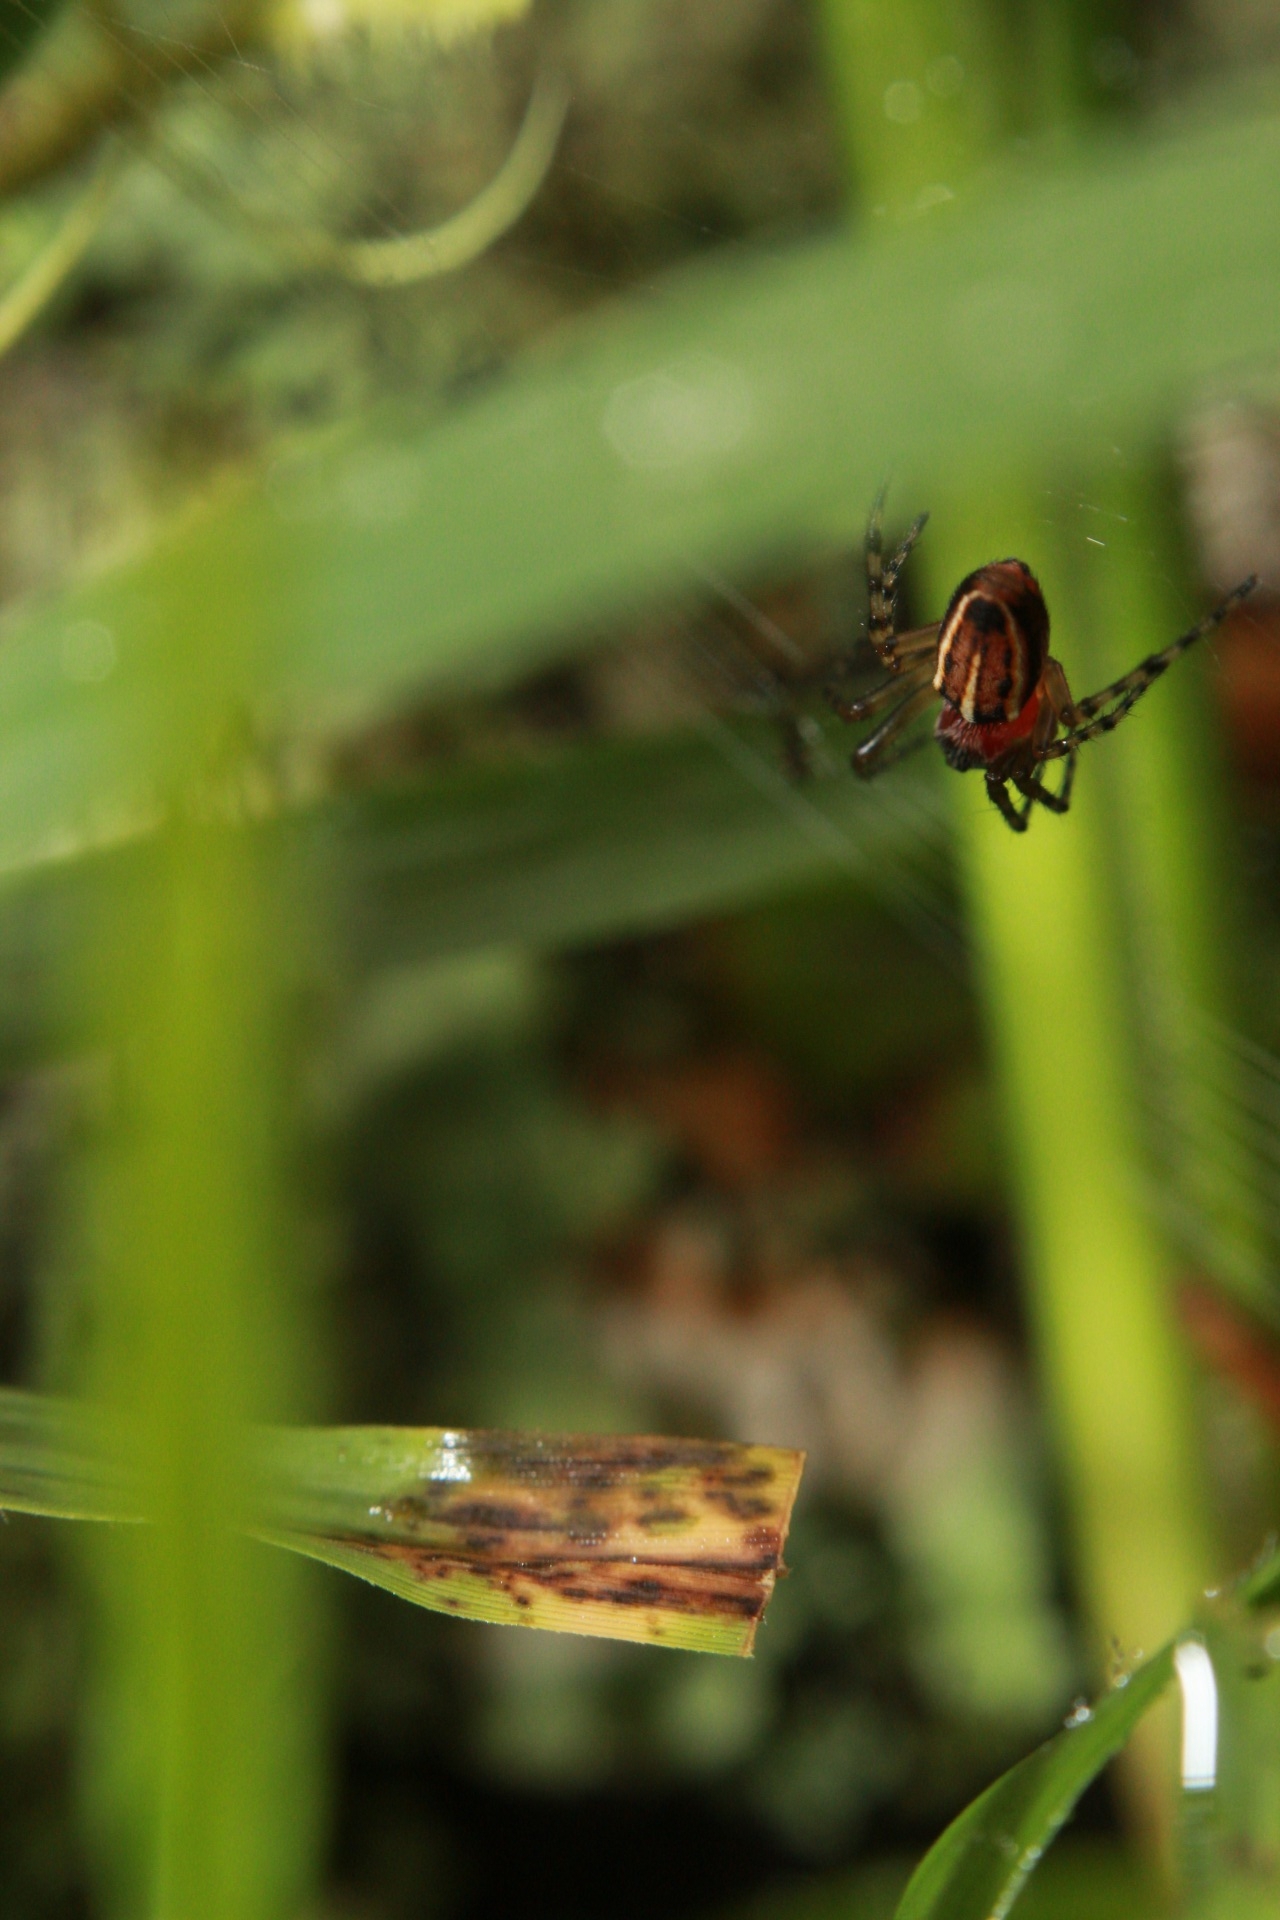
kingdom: Animalia
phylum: Arthropoda
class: Arachnida
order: Araneae
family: Araneidae
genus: Alpaida
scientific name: Alpaida leucogramma
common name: Orb weavers
